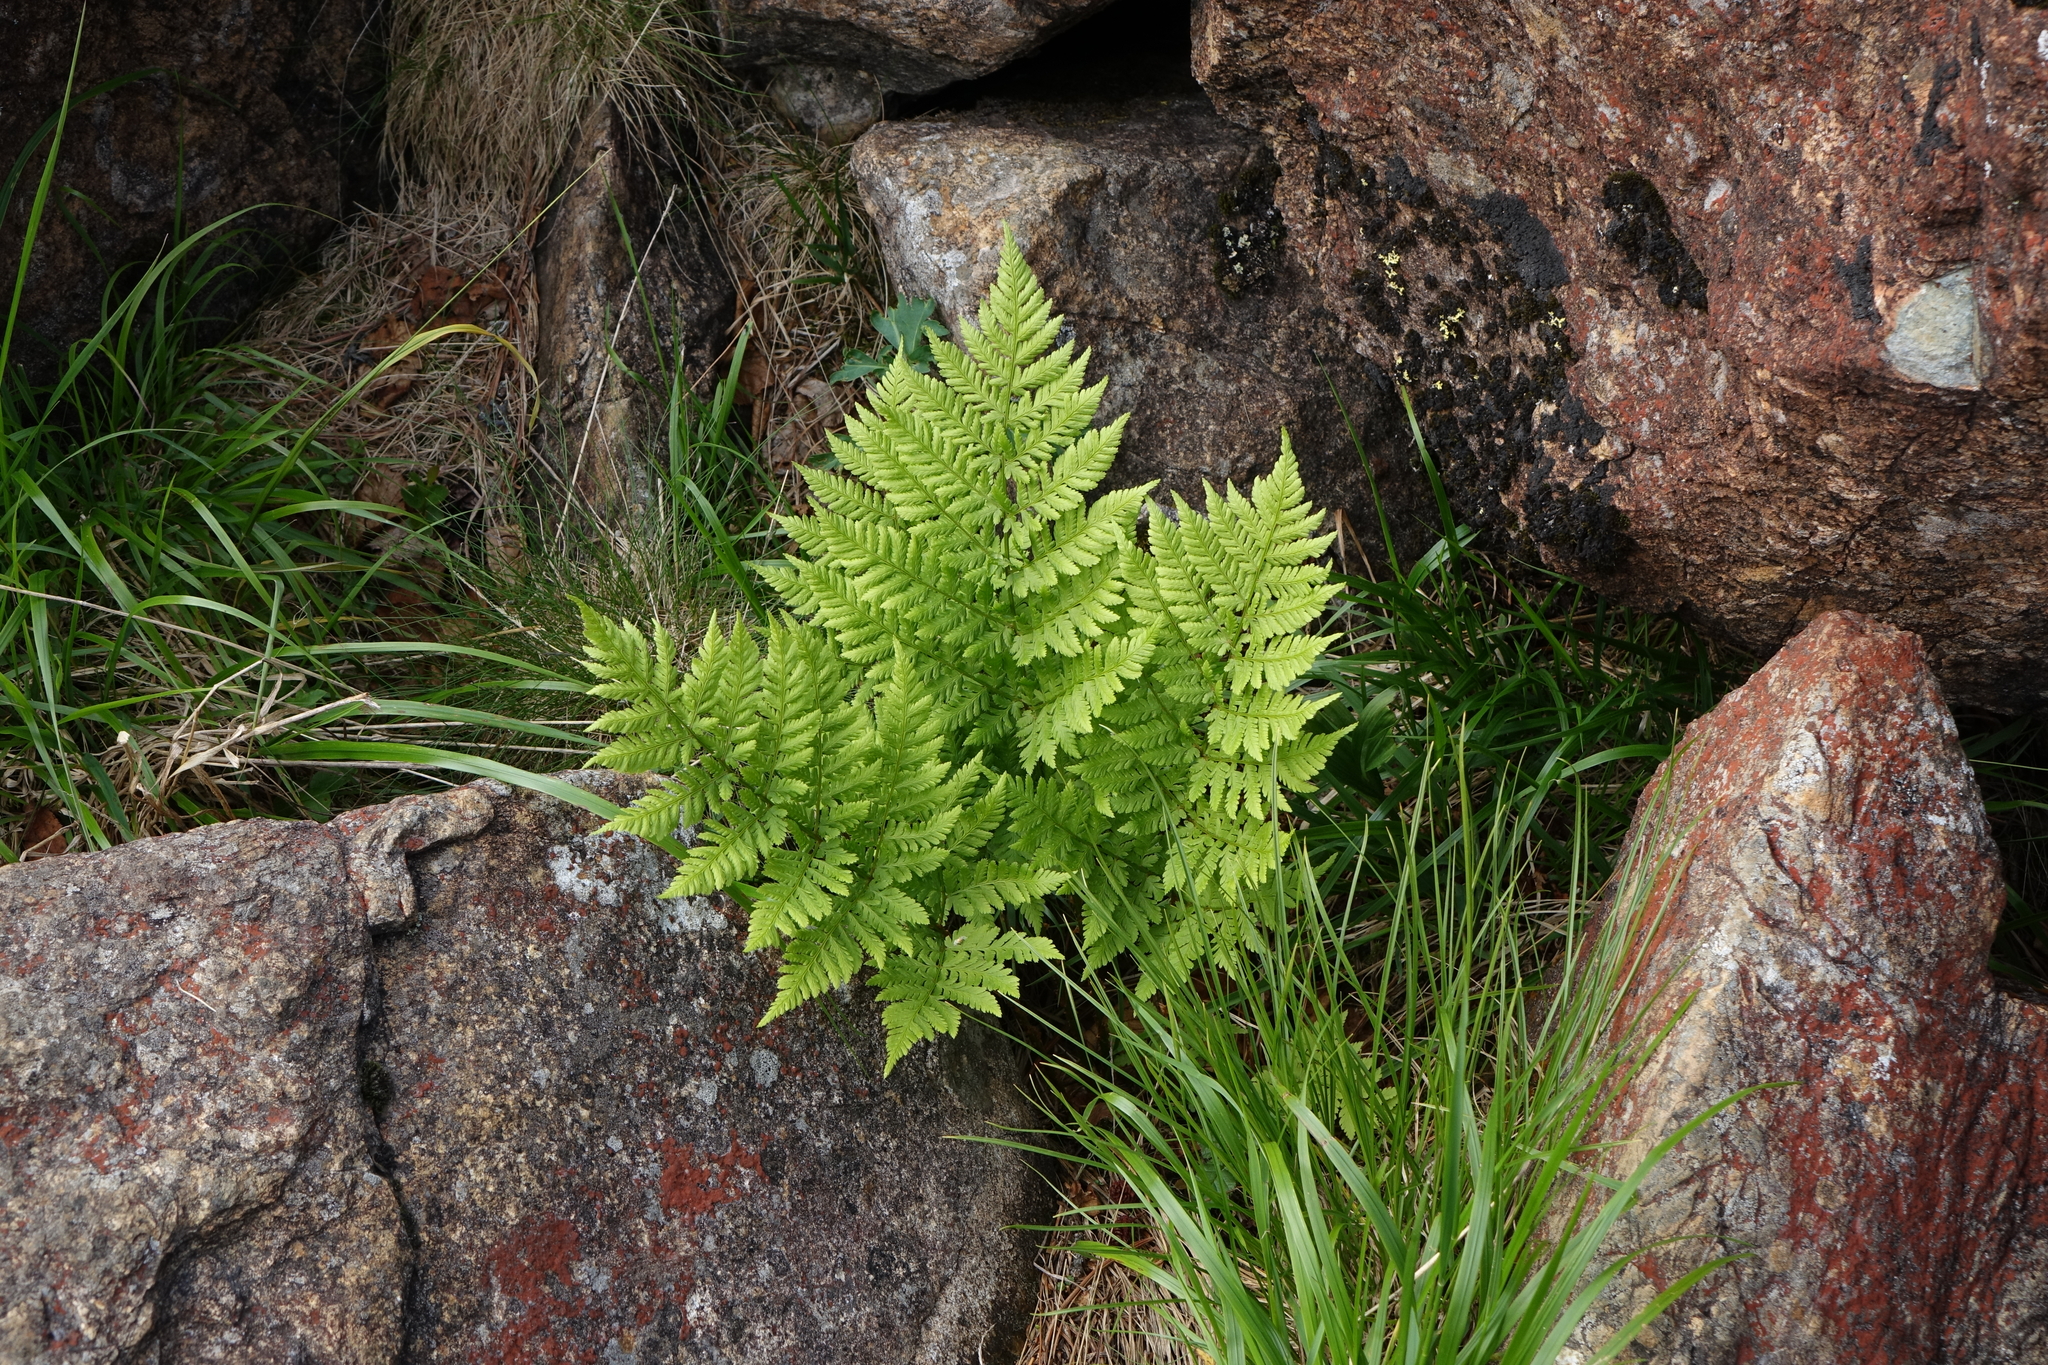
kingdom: Plantae
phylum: Tracheophyta
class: Polypodiopsida
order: Polypodiales
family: Dryopteridaceae
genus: Dryopteris
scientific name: Dryopteris expansa
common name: Northern buckler fern
